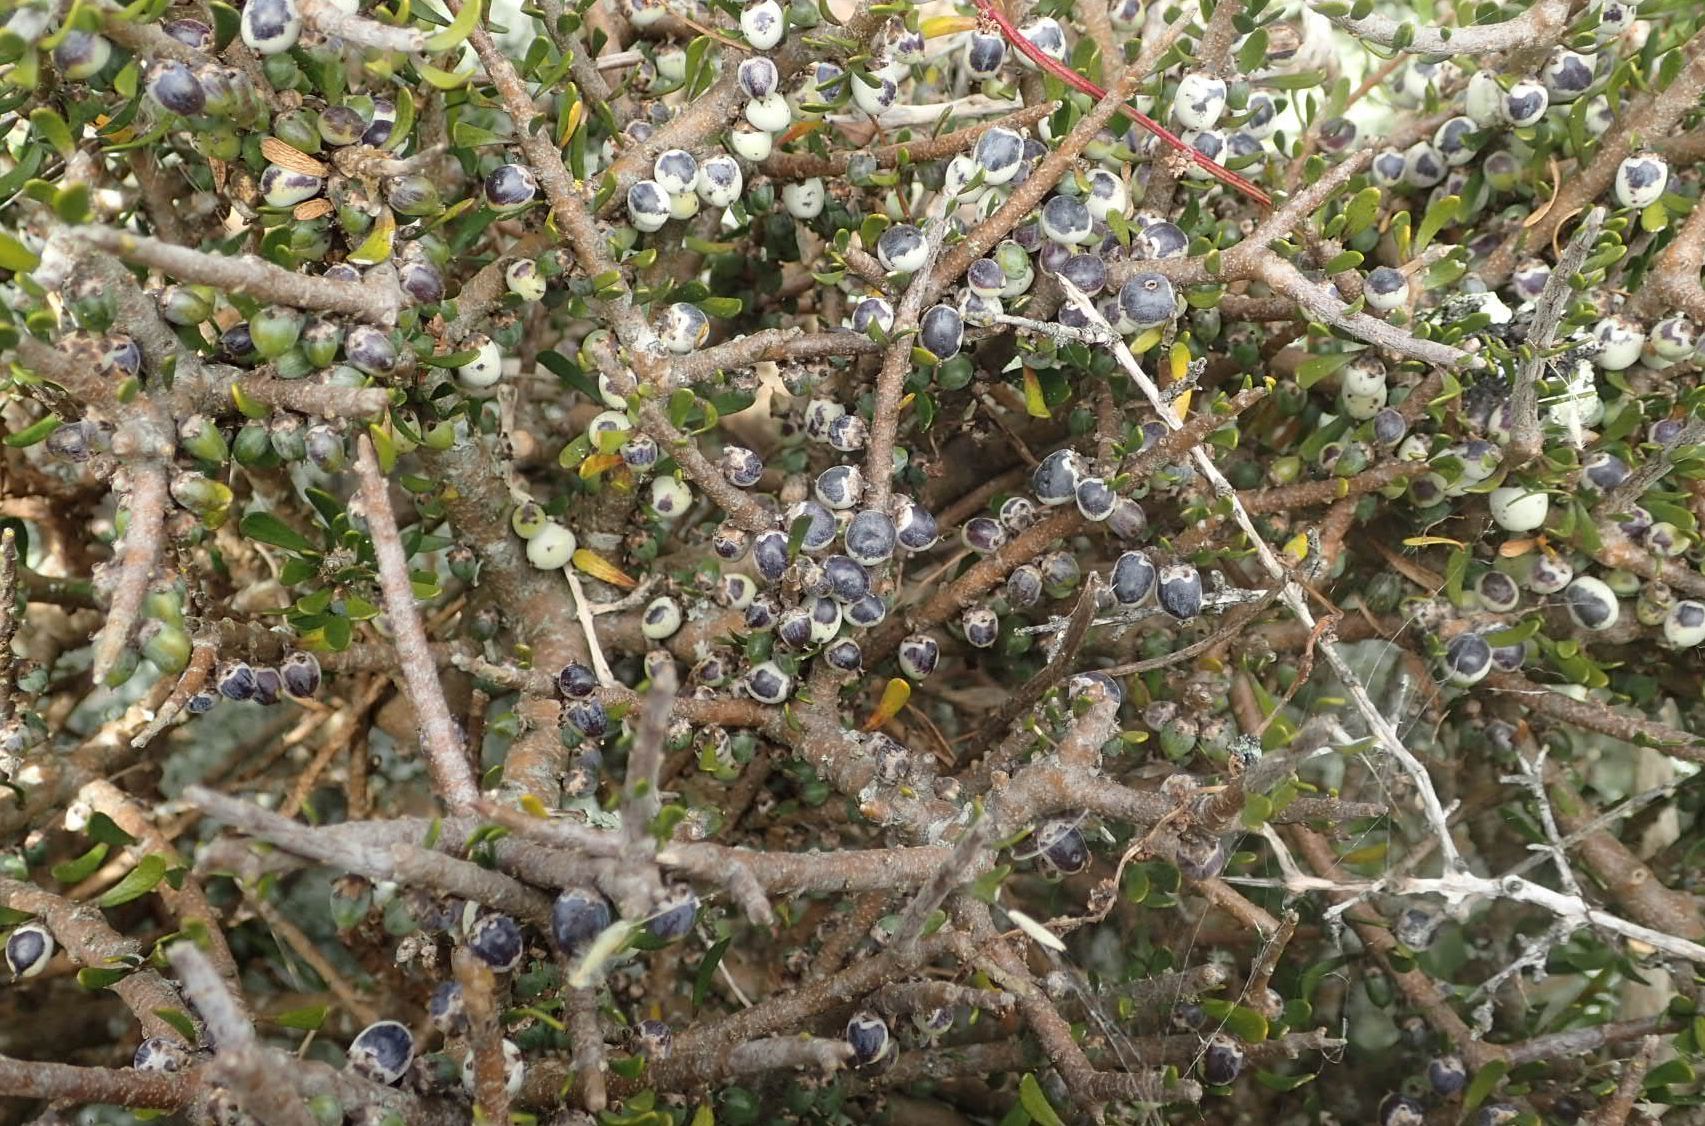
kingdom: Plantae
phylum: Tracheophyta
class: Magnoliopsida
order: Malpighiales
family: Violaceae
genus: Melicytus
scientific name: Melicytus alpinus
